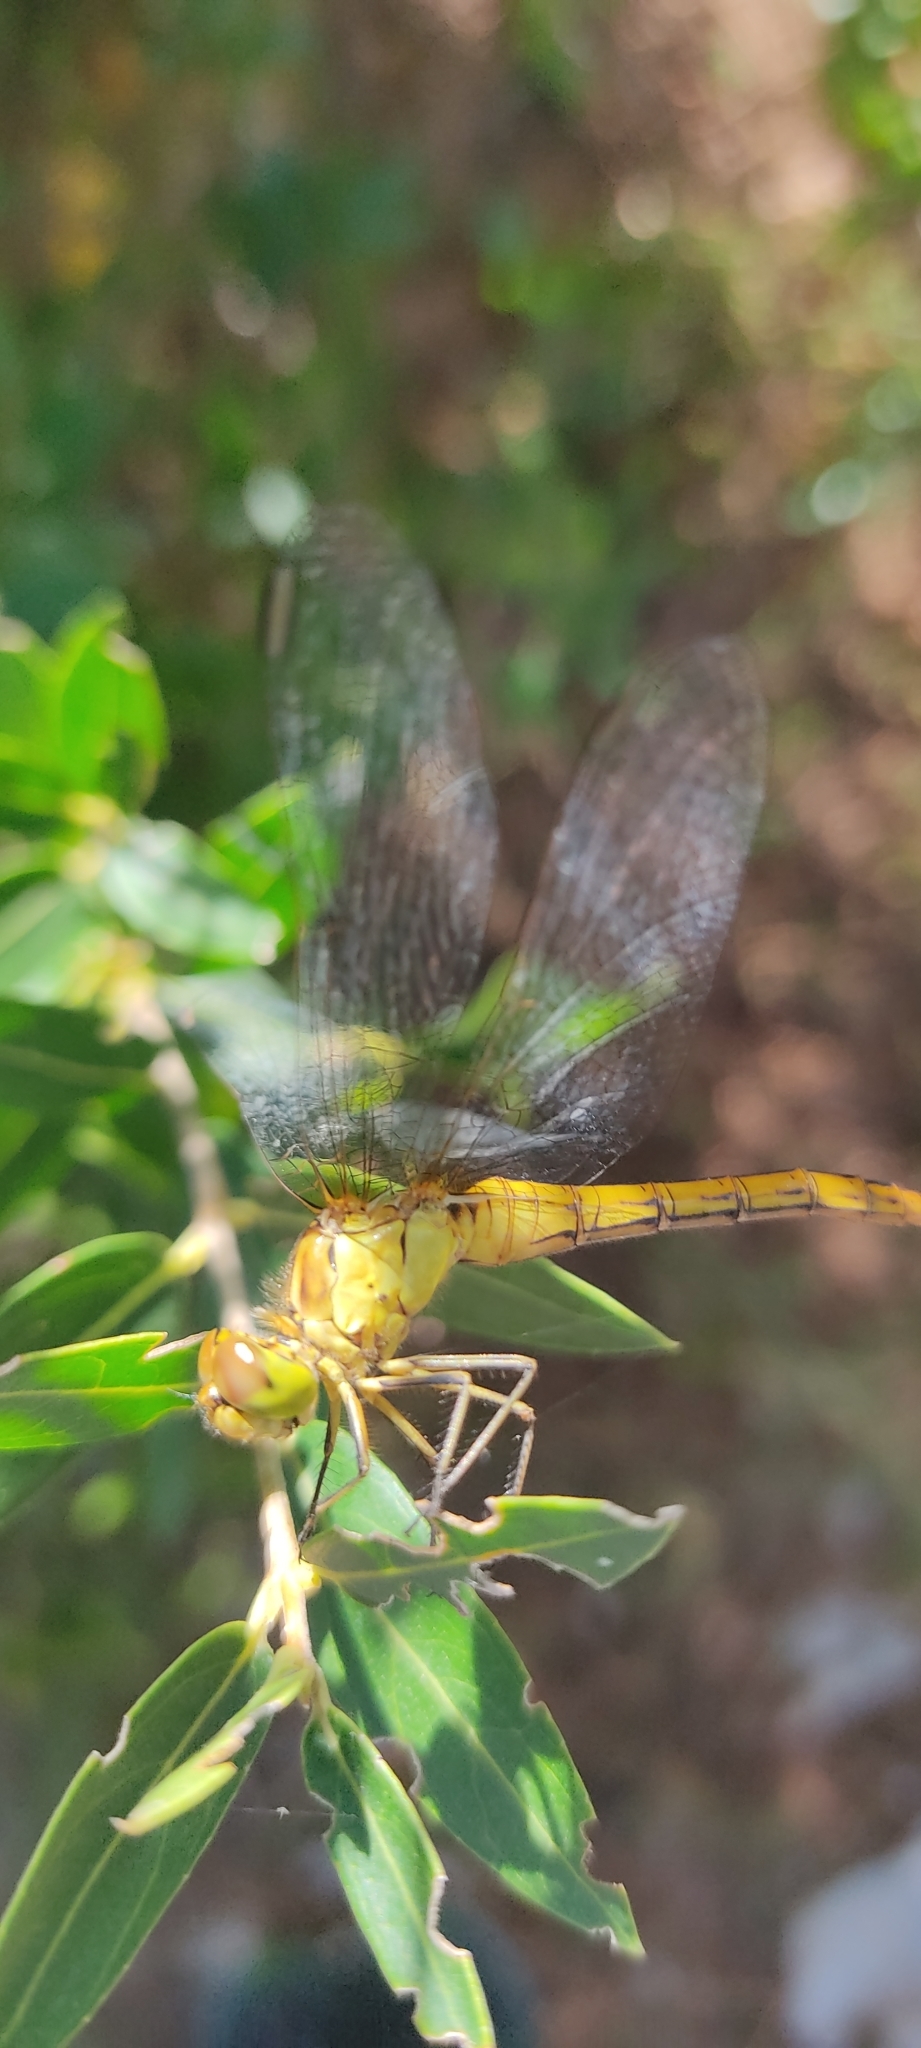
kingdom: Animalia
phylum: Arthropoda
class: Insecta
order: Odonata
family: Libellulidae
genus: Sympetrum
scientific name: Sympetrum meridionale
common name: Southern darter
